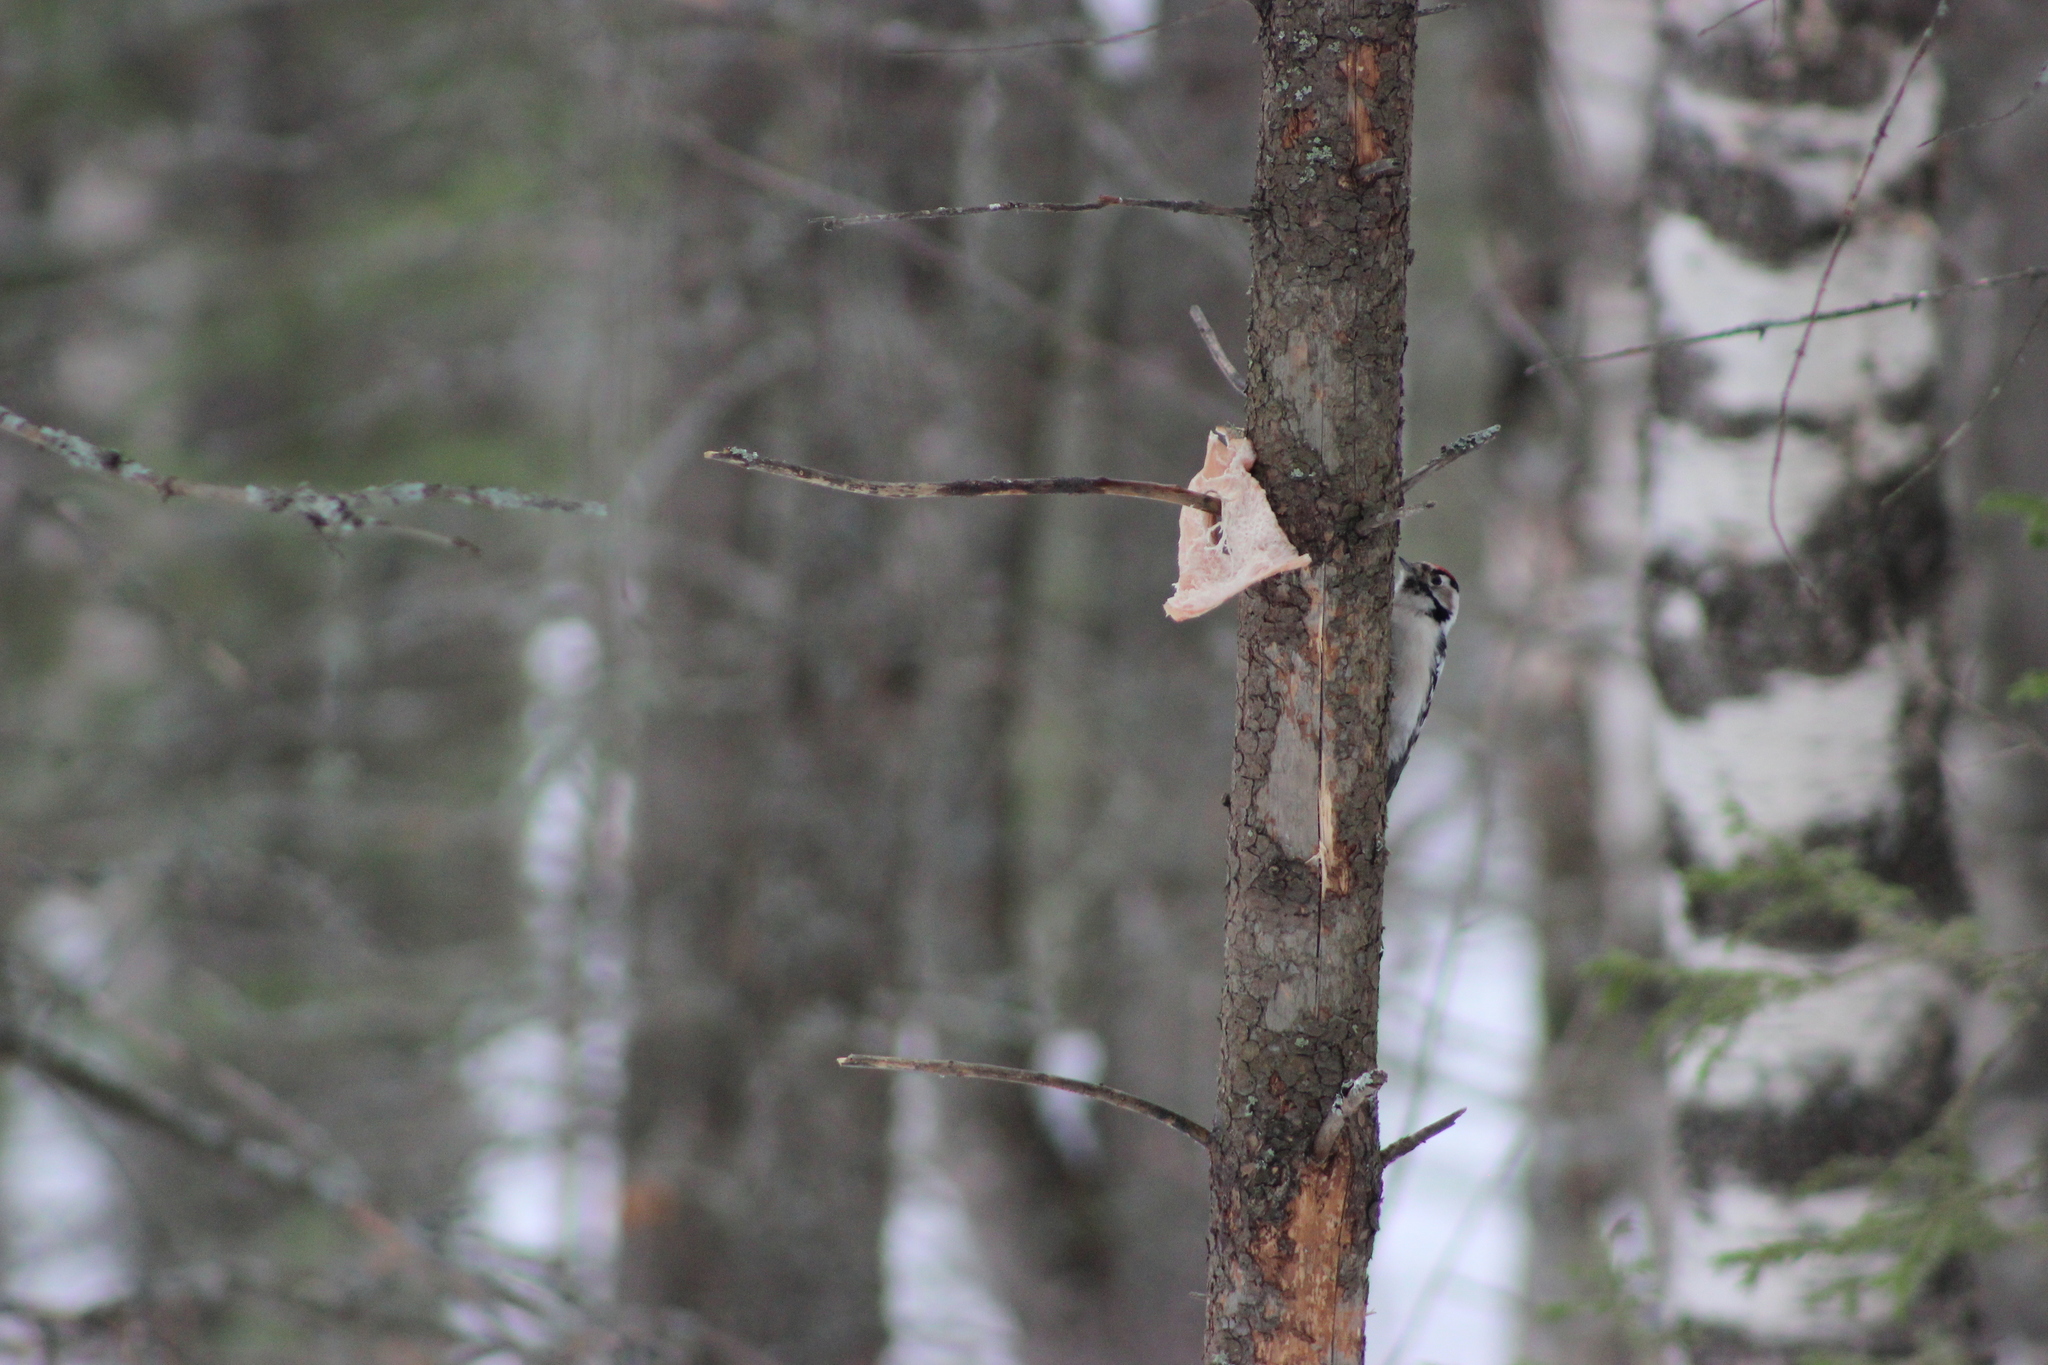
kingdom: Animalia
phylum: Chordata
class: Aves
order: Piciformes
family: Picidae
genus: Dryobates
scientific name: Dryobates minor
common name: Lesser spotted woodpecker
